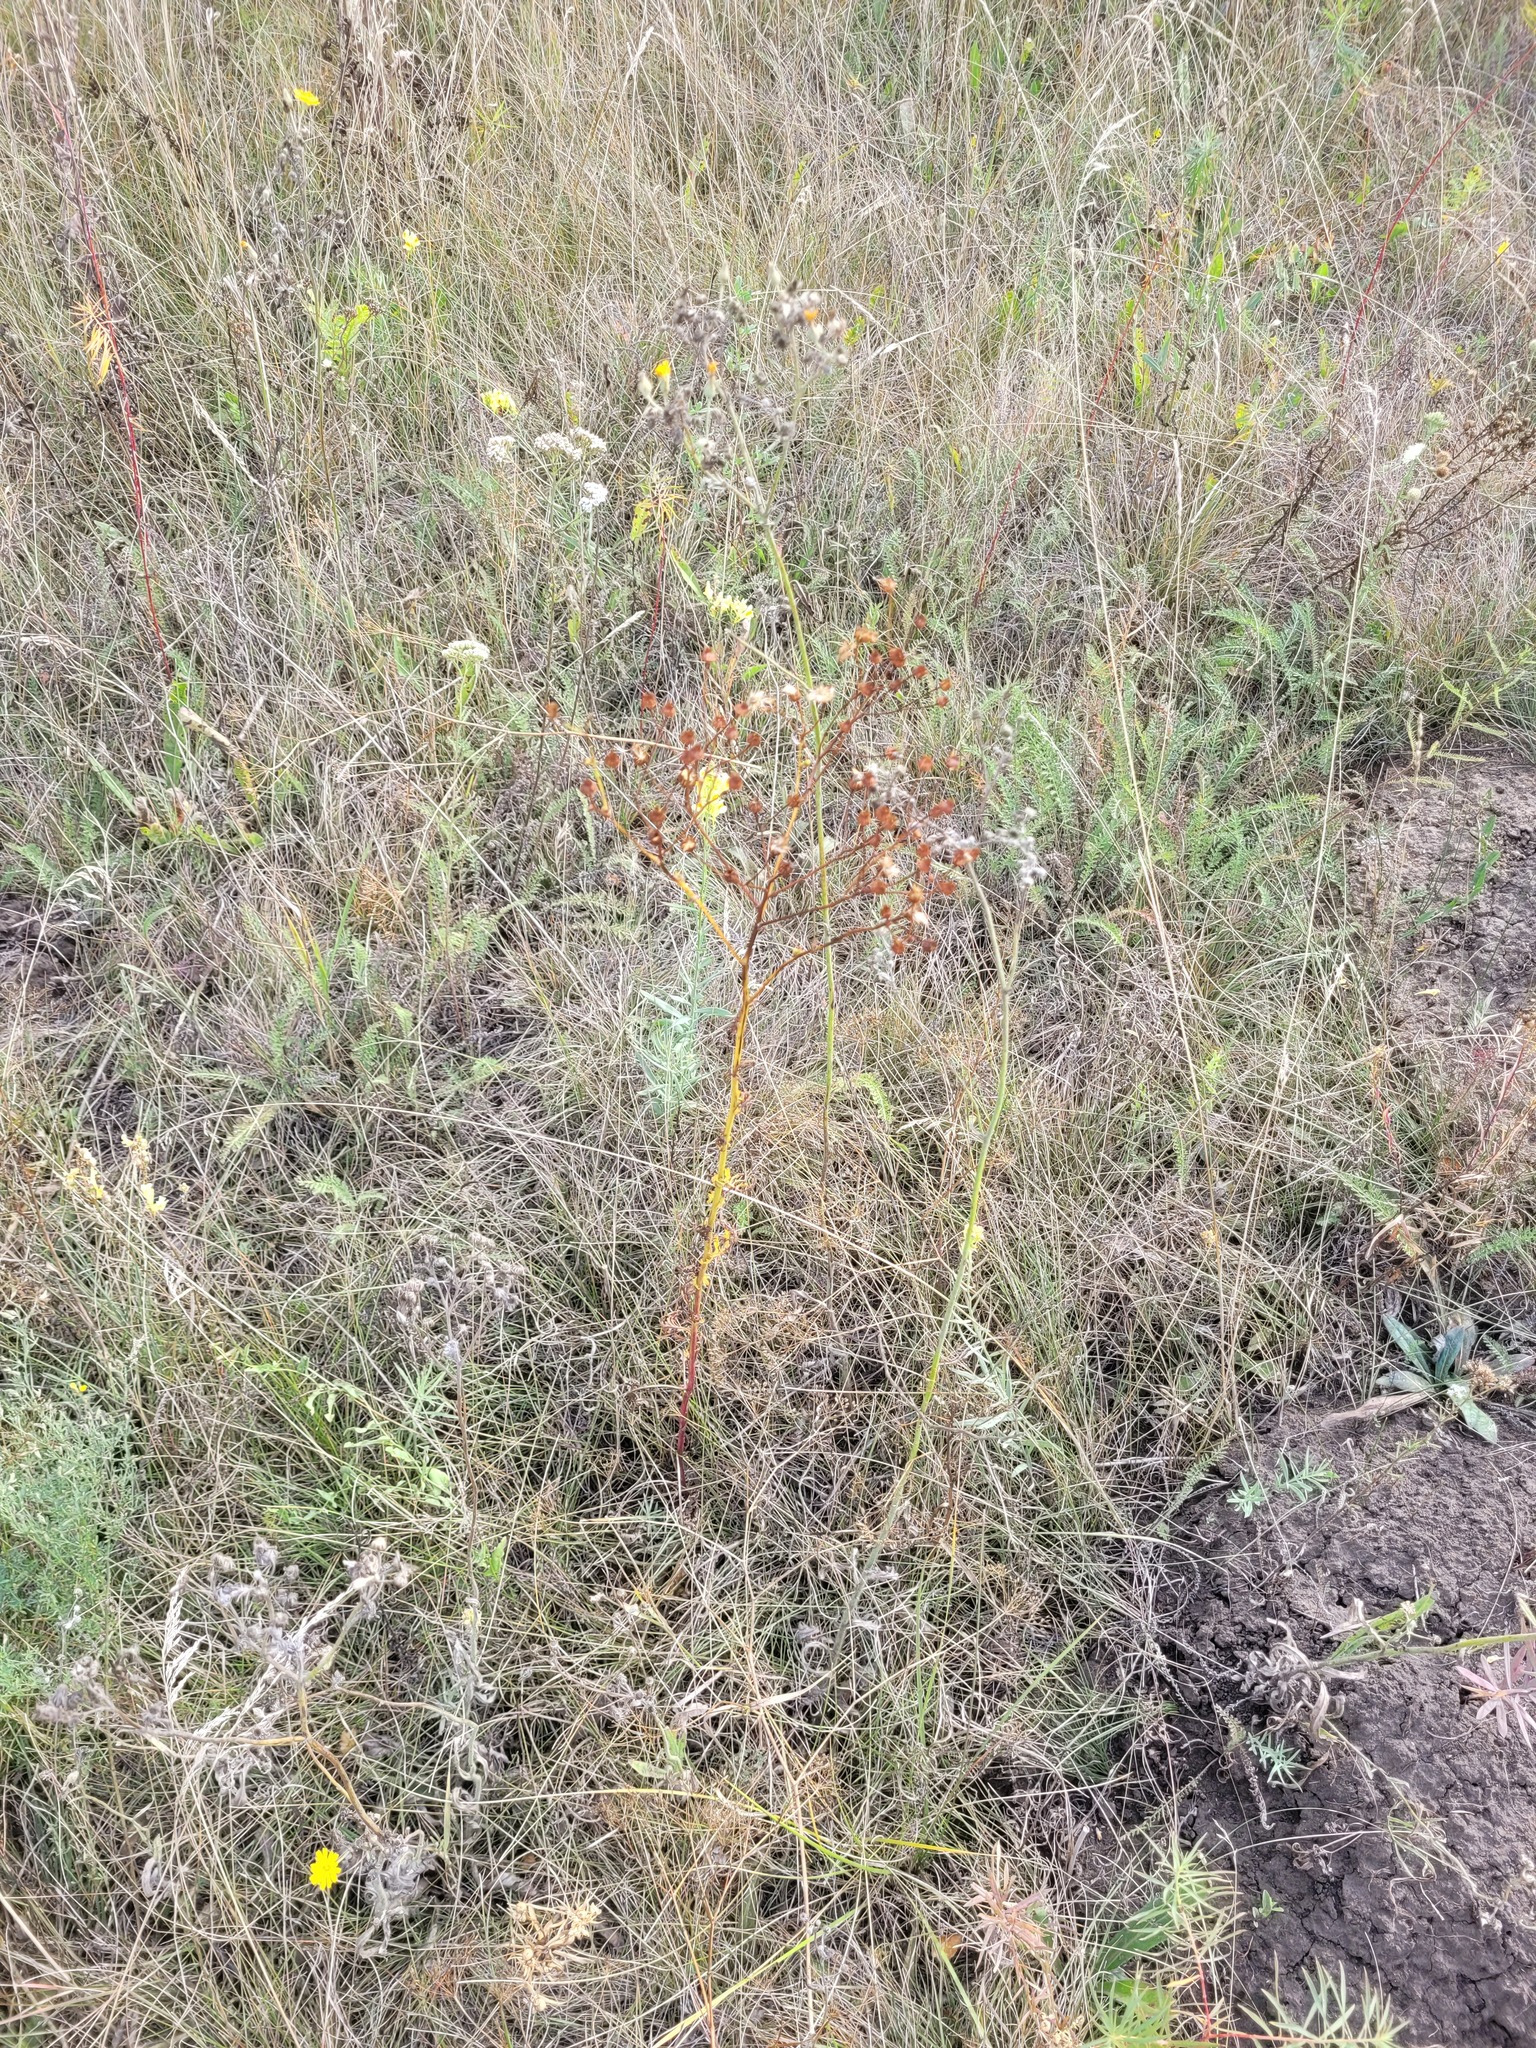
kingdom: Plantae
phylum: Tracheophyta
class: Magnoliopsida
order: Asterales
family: Asteraceae
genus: Jacobaea
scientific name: Jacobaea vulgaris
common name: Stinking willie
